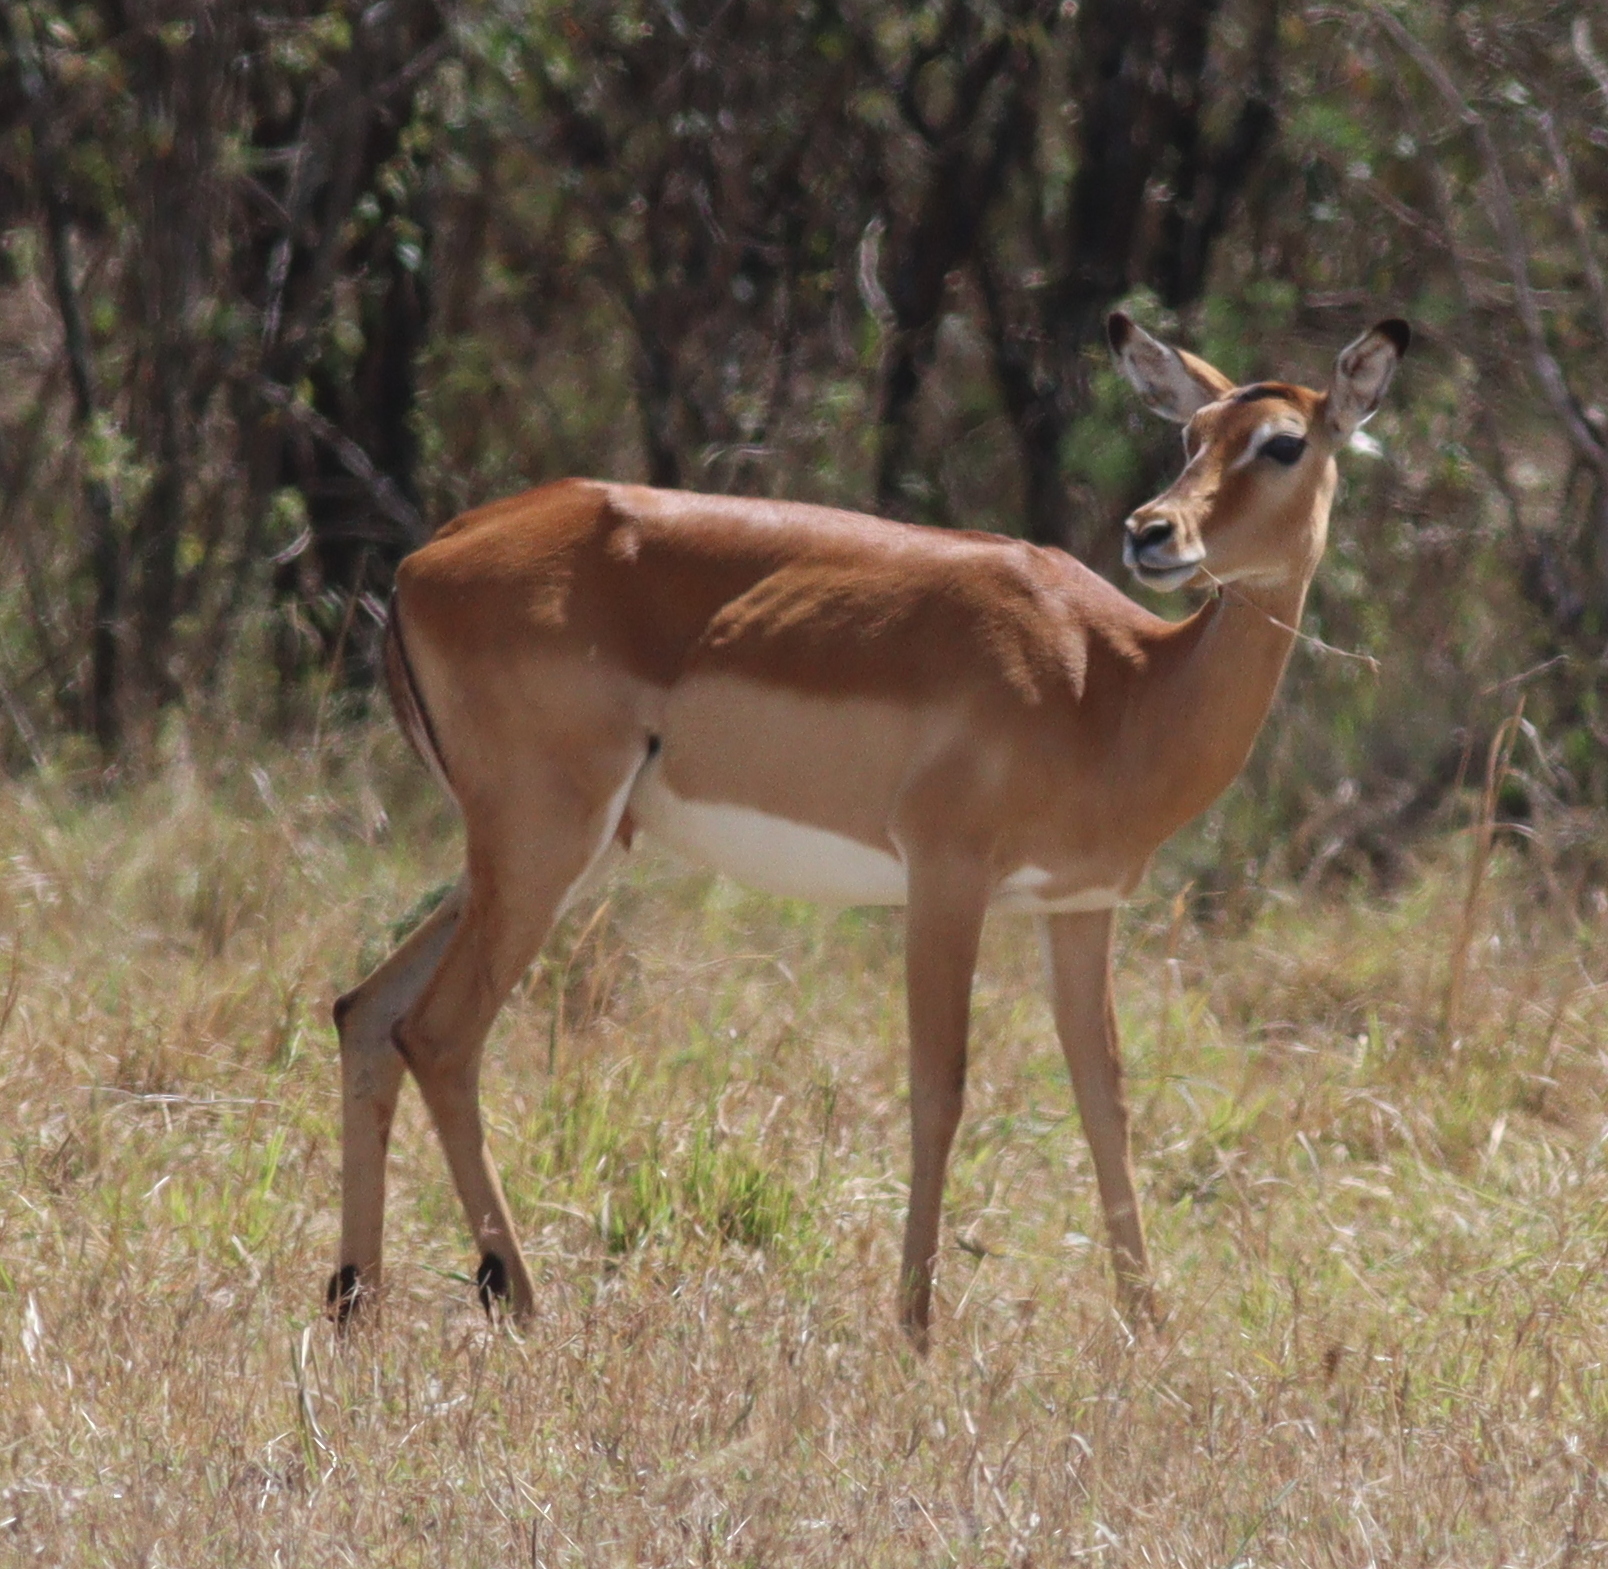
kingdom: Animalia
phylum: Chordata
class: Mammalia
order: Artiodactyla
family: Bovidae
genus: Aepyceros
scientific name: Aepyceros melampus
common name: Impala
